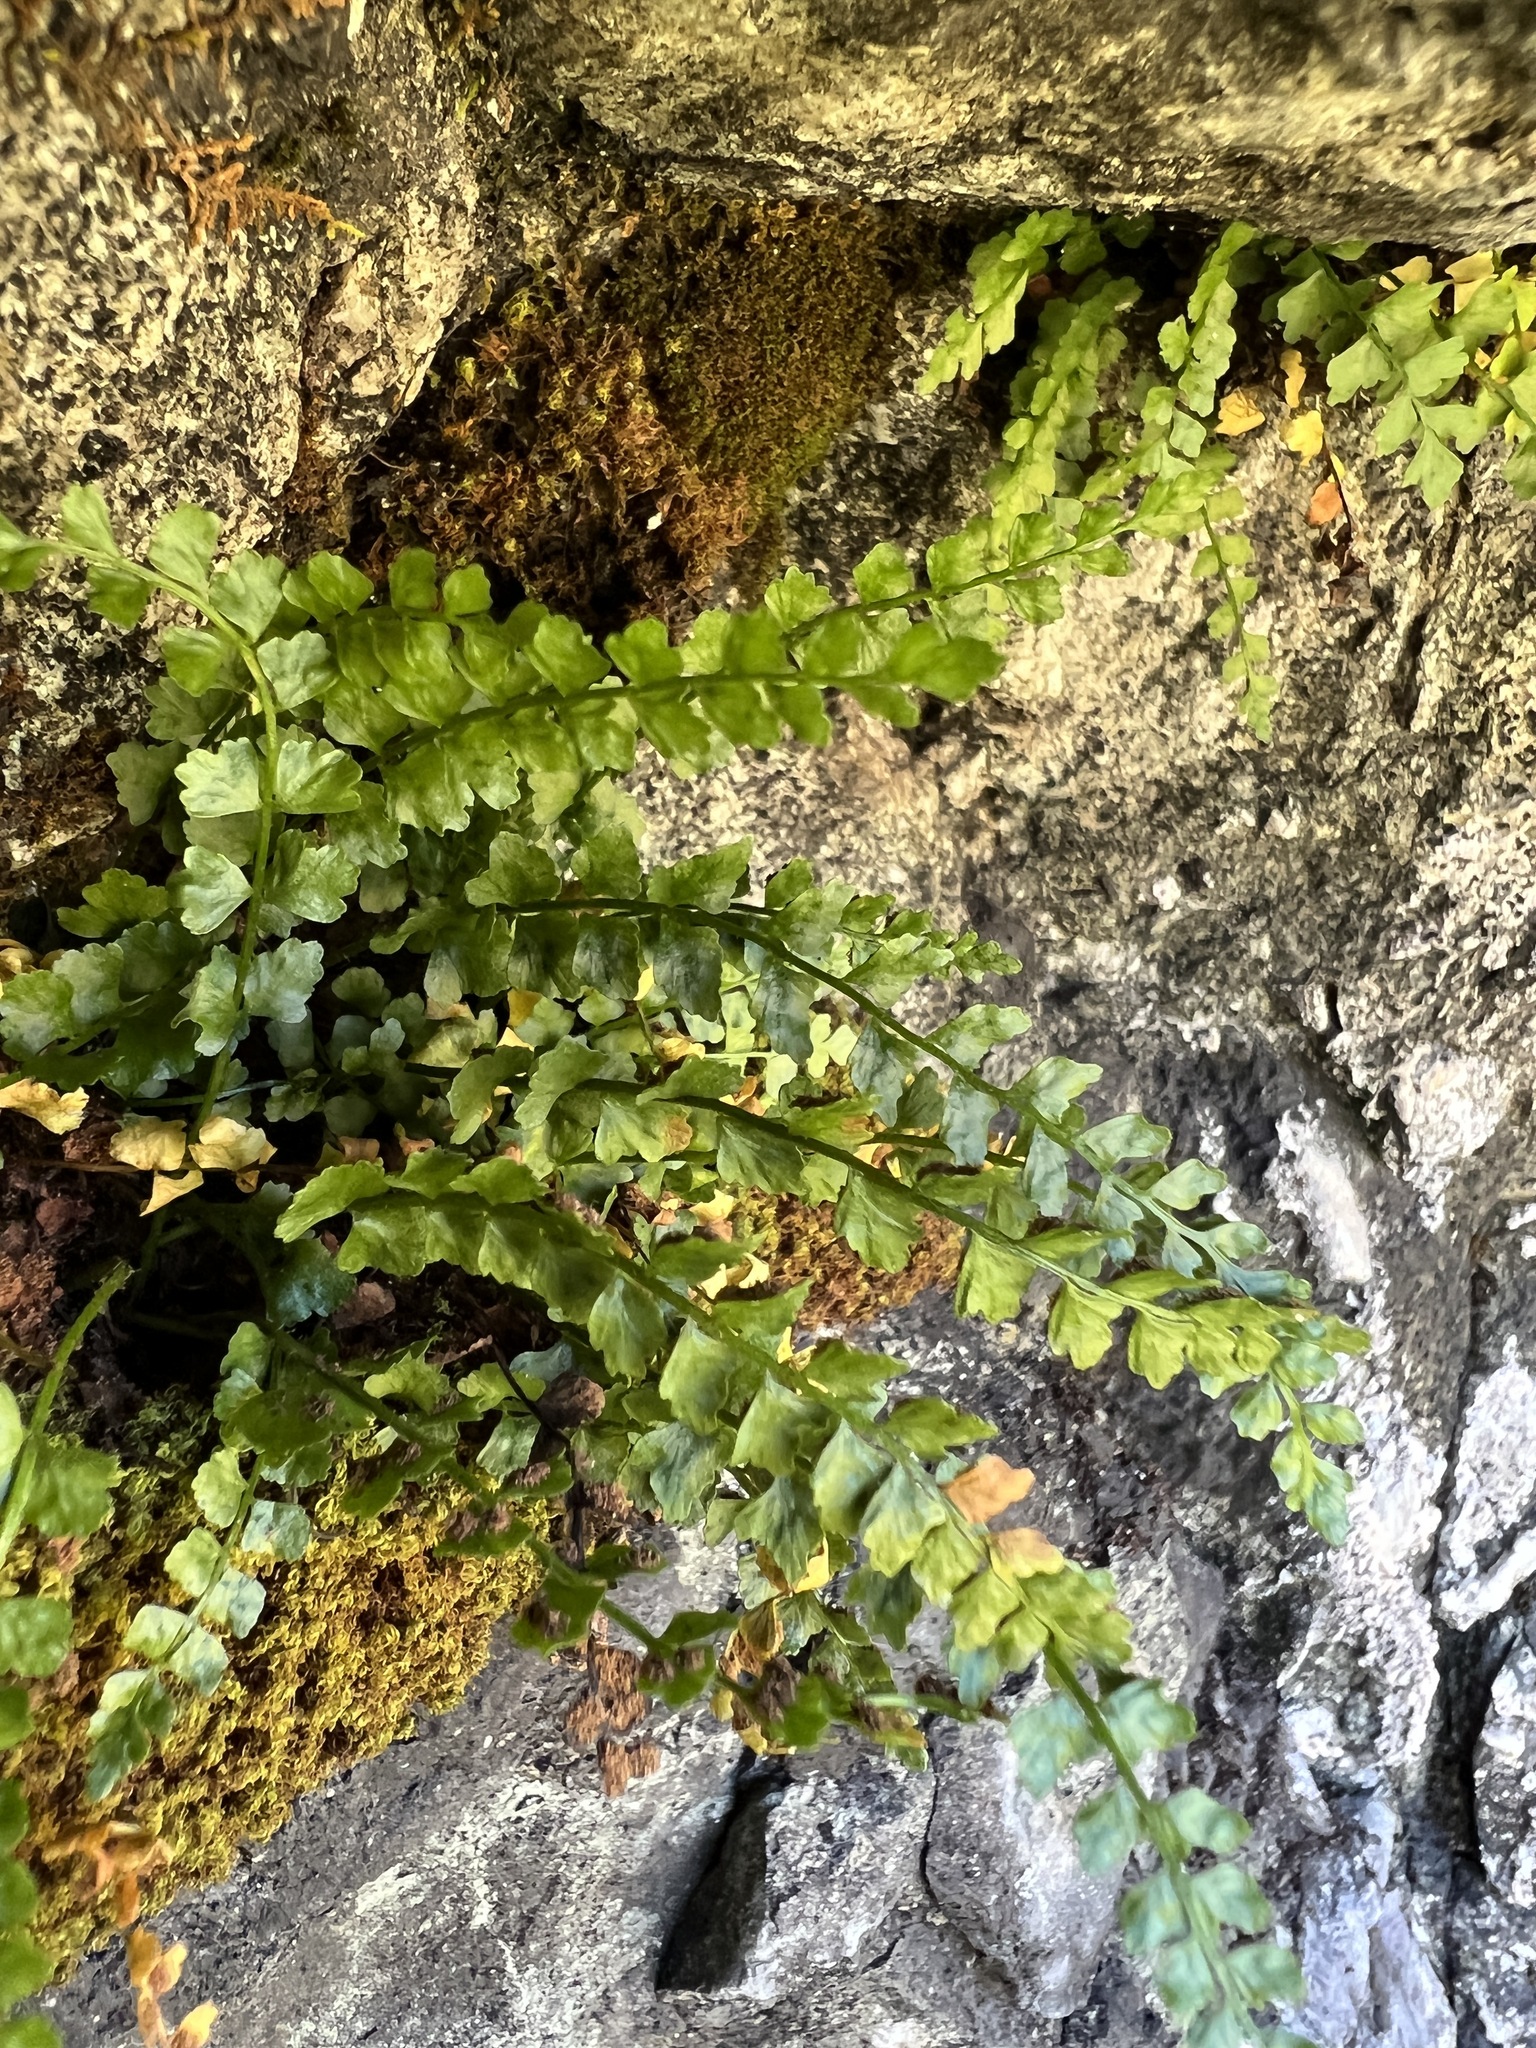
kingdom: Plantae
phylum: Tracheophyta
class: Polypodiopsida
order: Polypodiales
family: Aspleniaceae
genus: Asplenium
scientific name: Asplenium viride
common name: Green spleenwort
